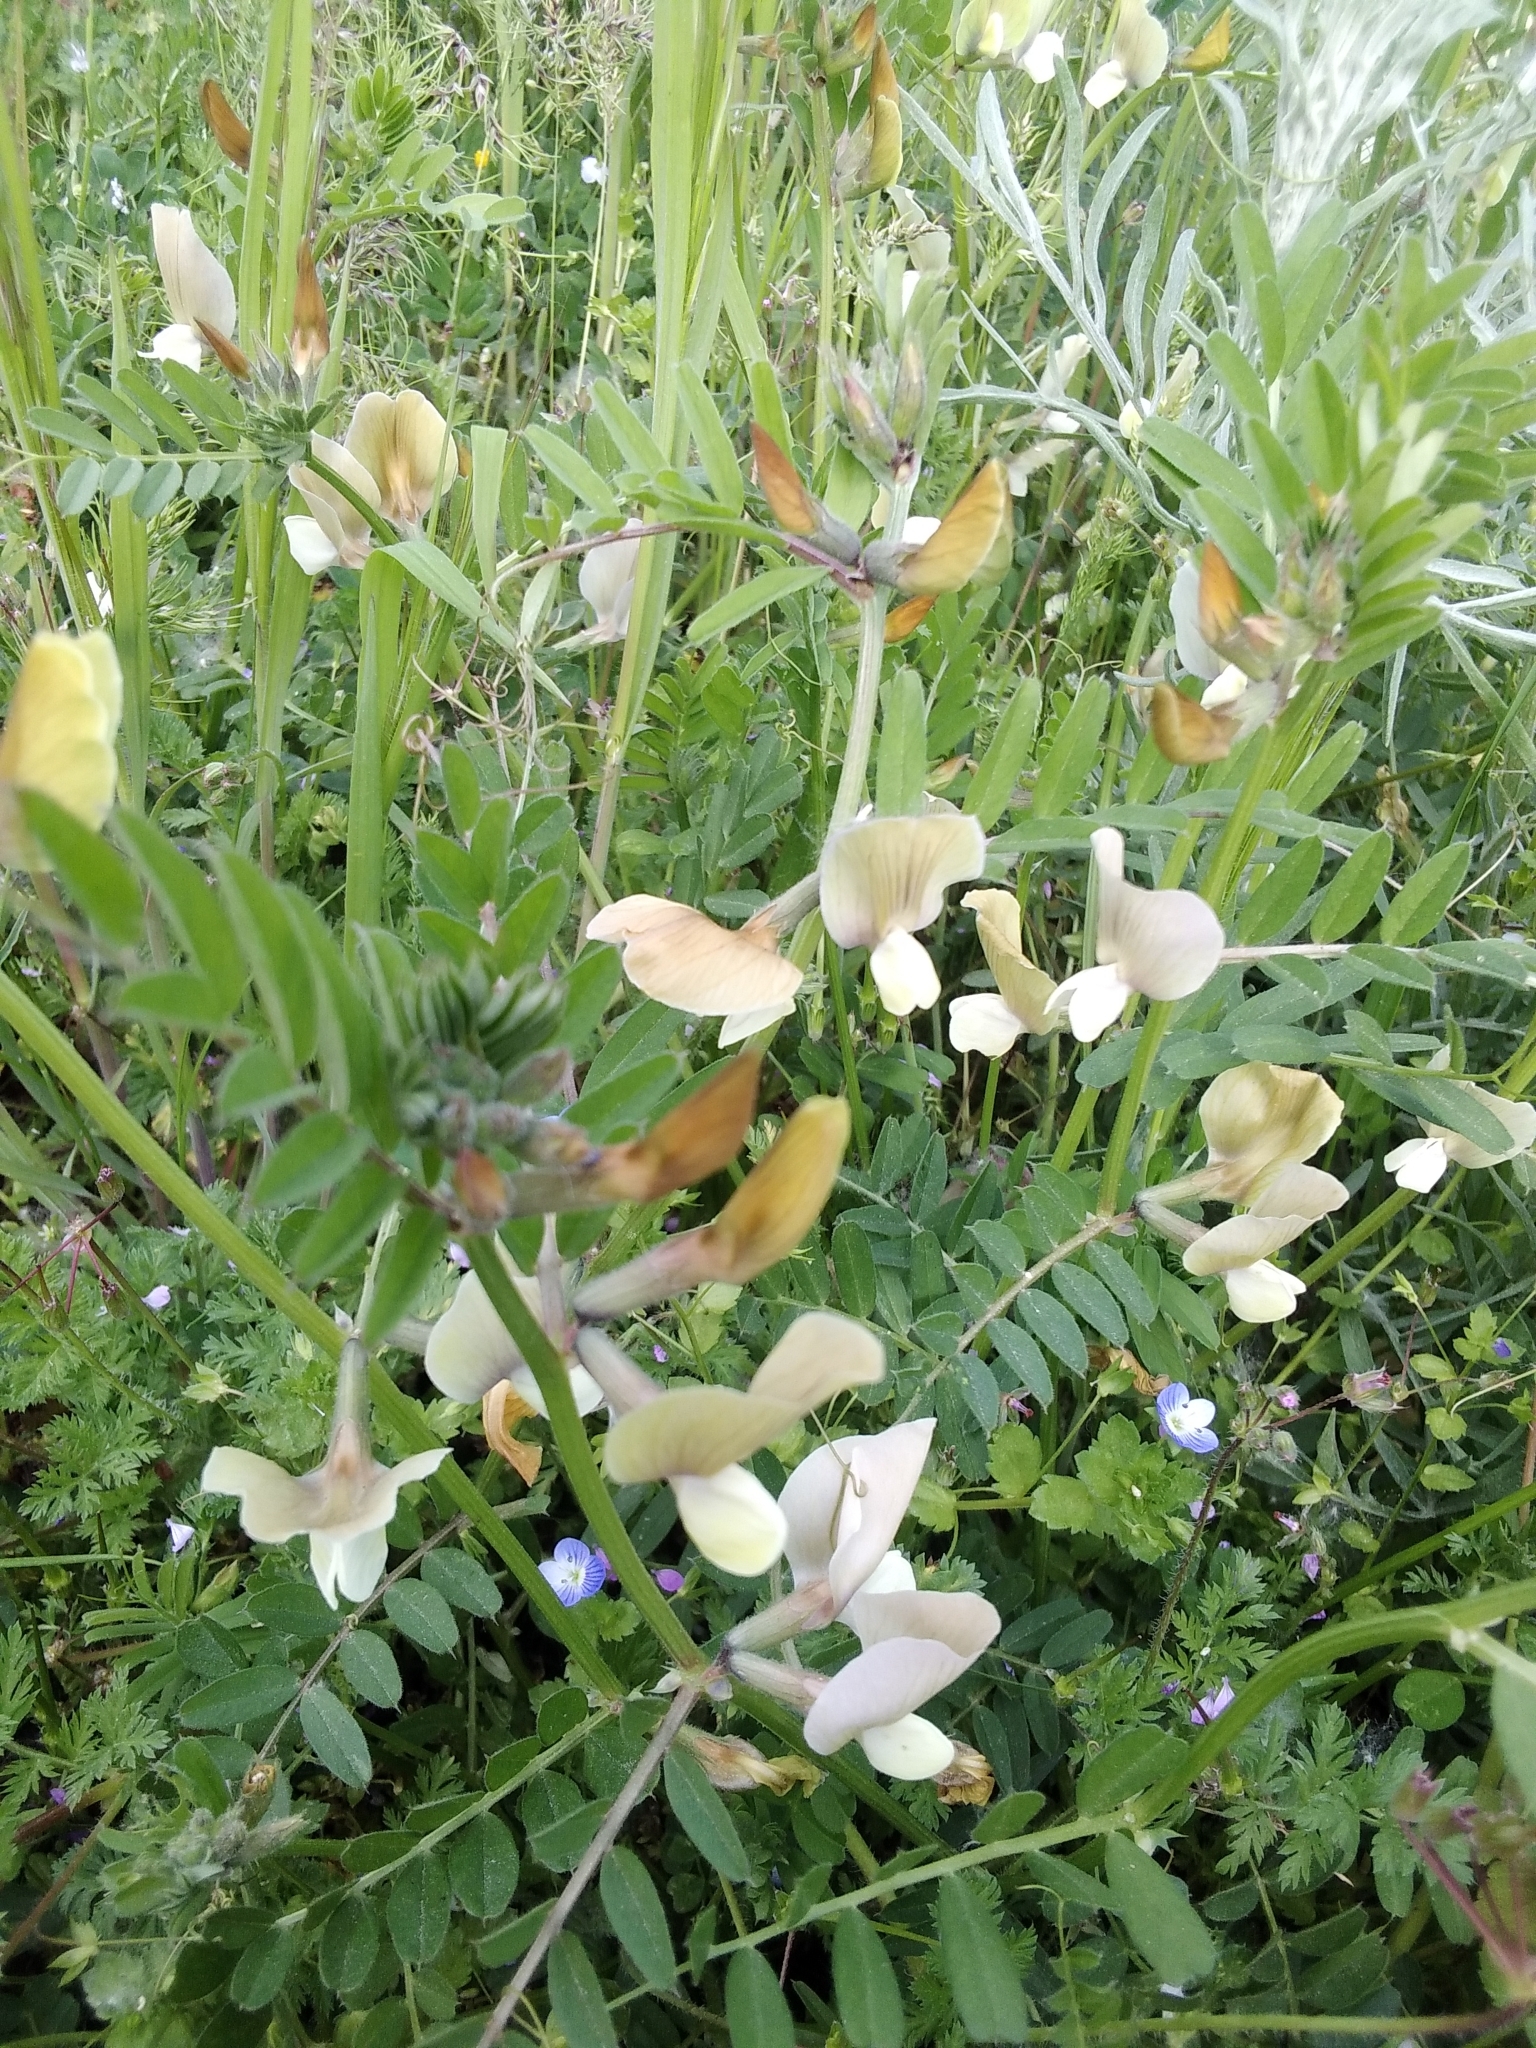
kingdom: Plantae
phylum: Tracheophyta
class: Magnoliopsida
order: Fabales
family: Fabaceae
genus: Vicia
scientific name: Vicia grandiflora
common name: Large yellow vetch
